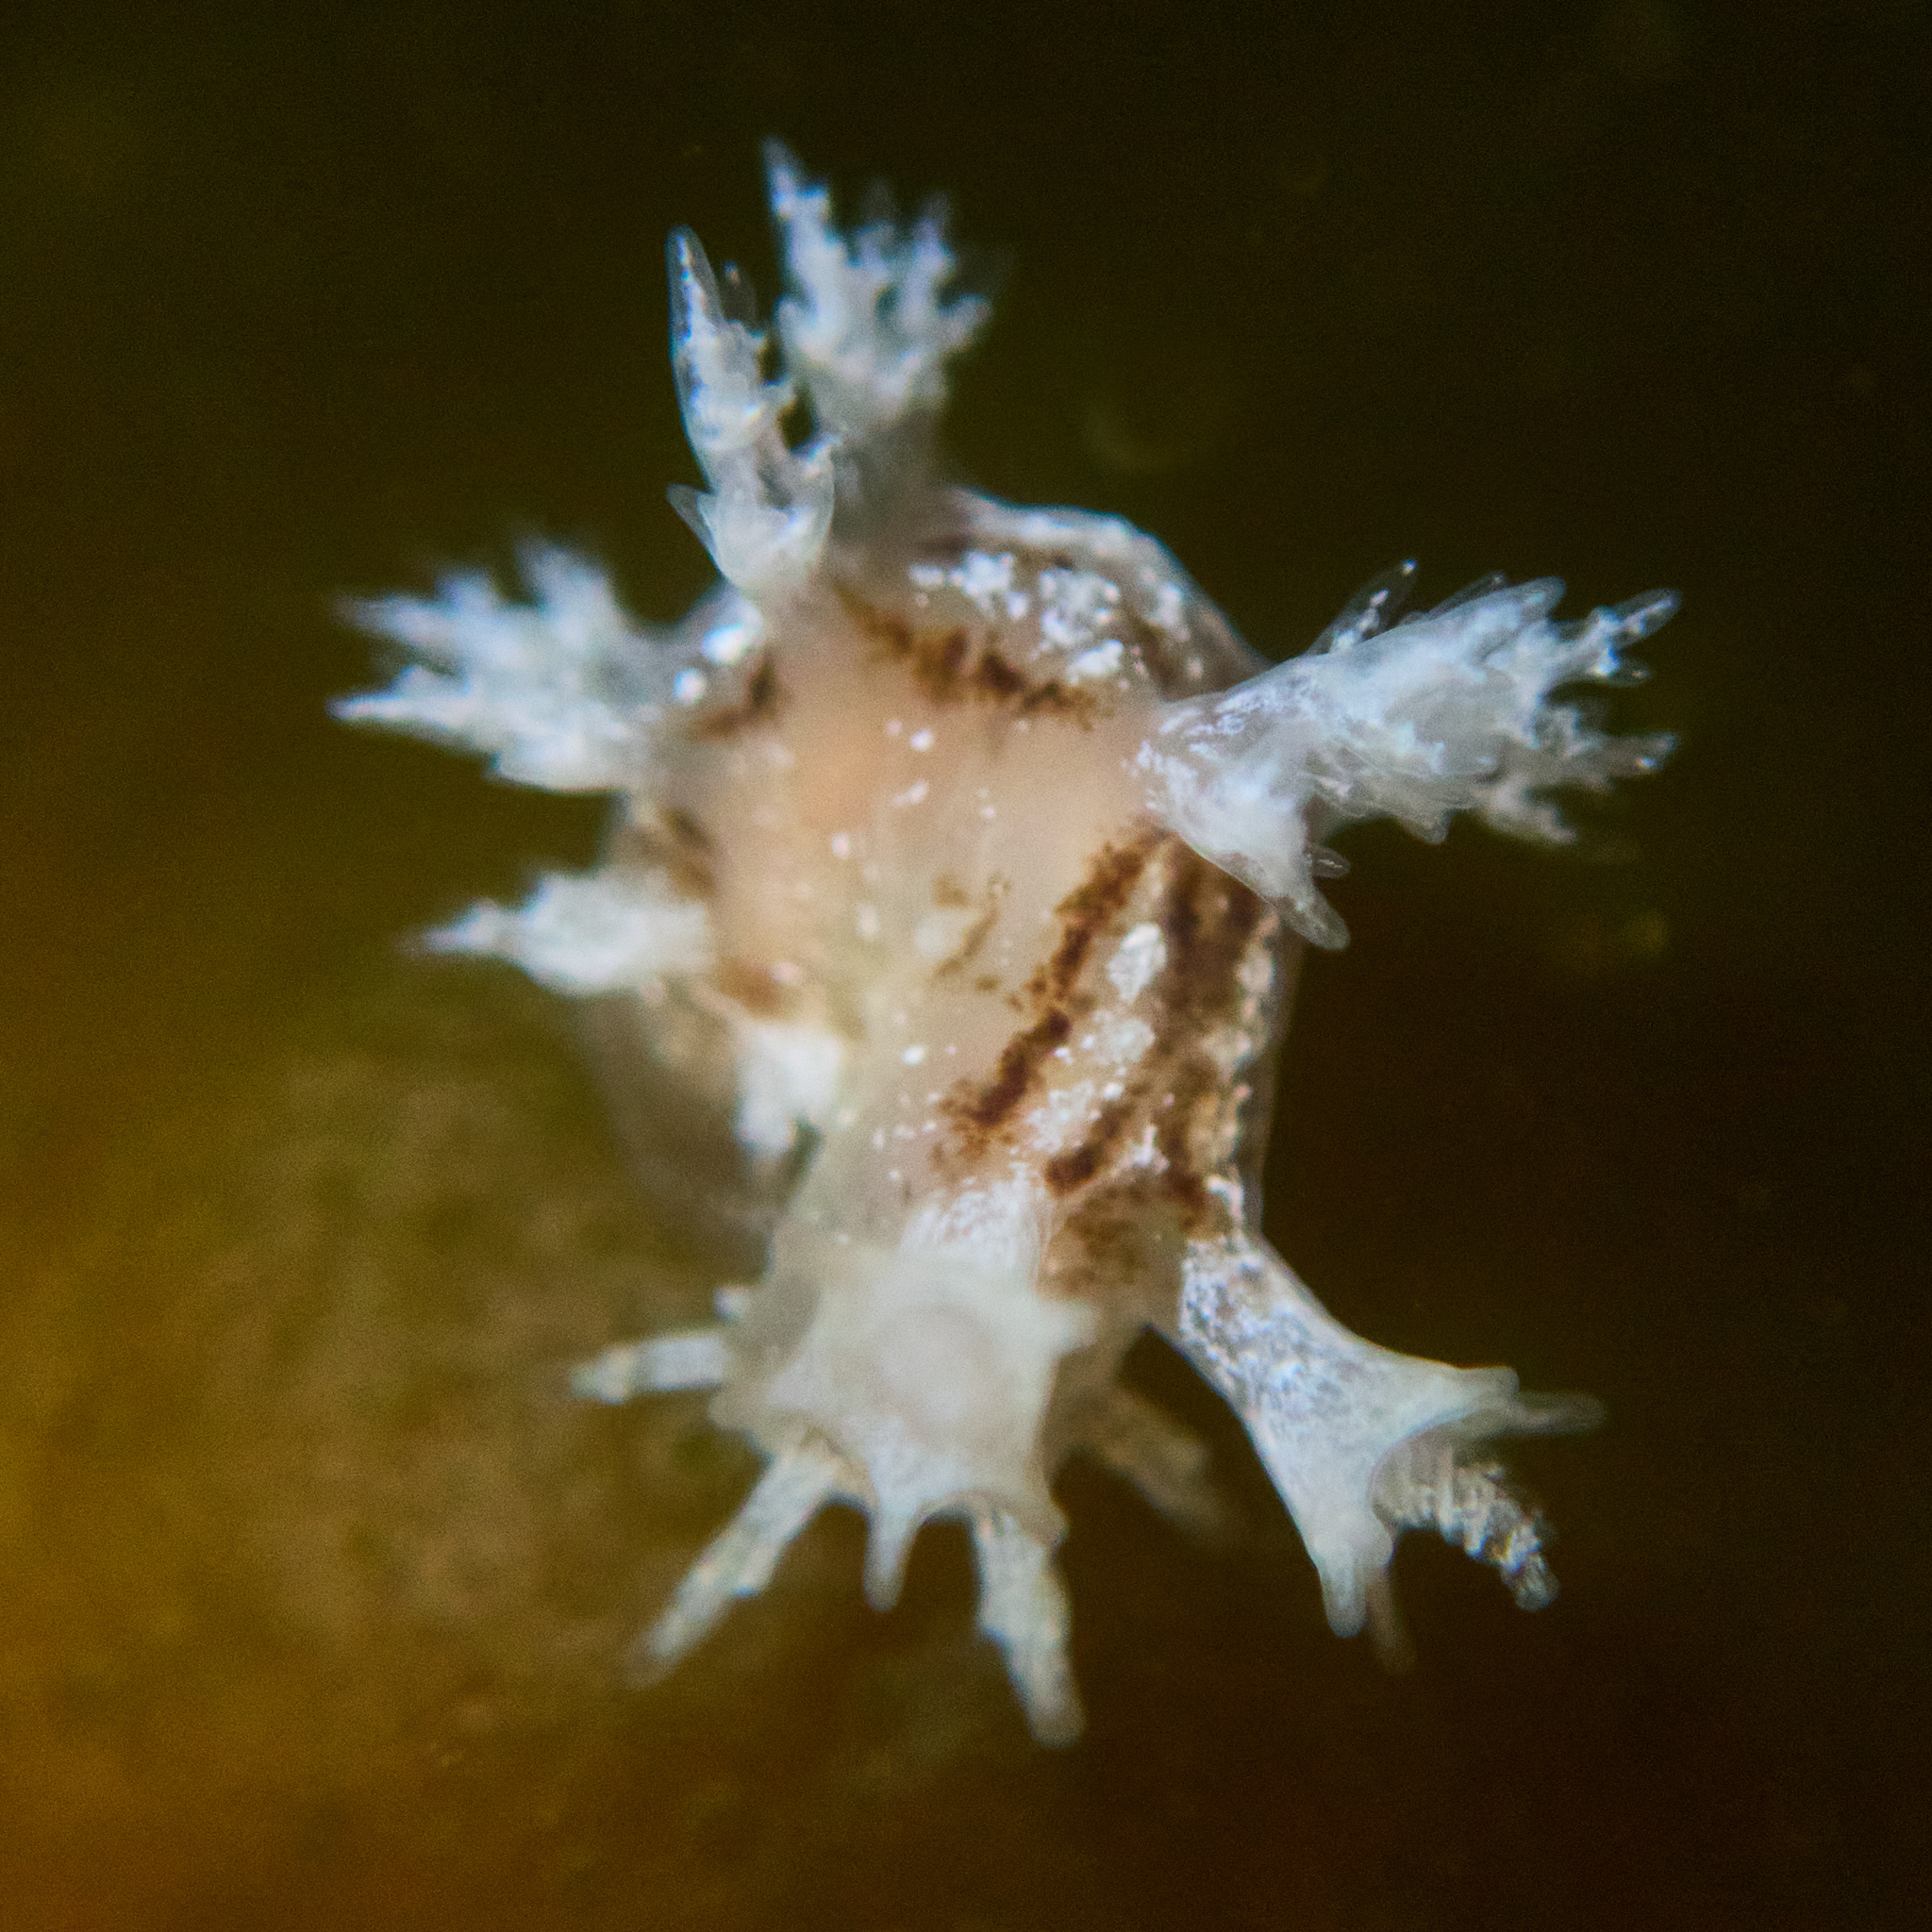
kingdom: Animalia
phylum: Mollusca
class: Gastropoda
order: Nudibranchia
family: Dendronotidae
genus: Dendronotus
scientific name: Dendronotus subramosus
